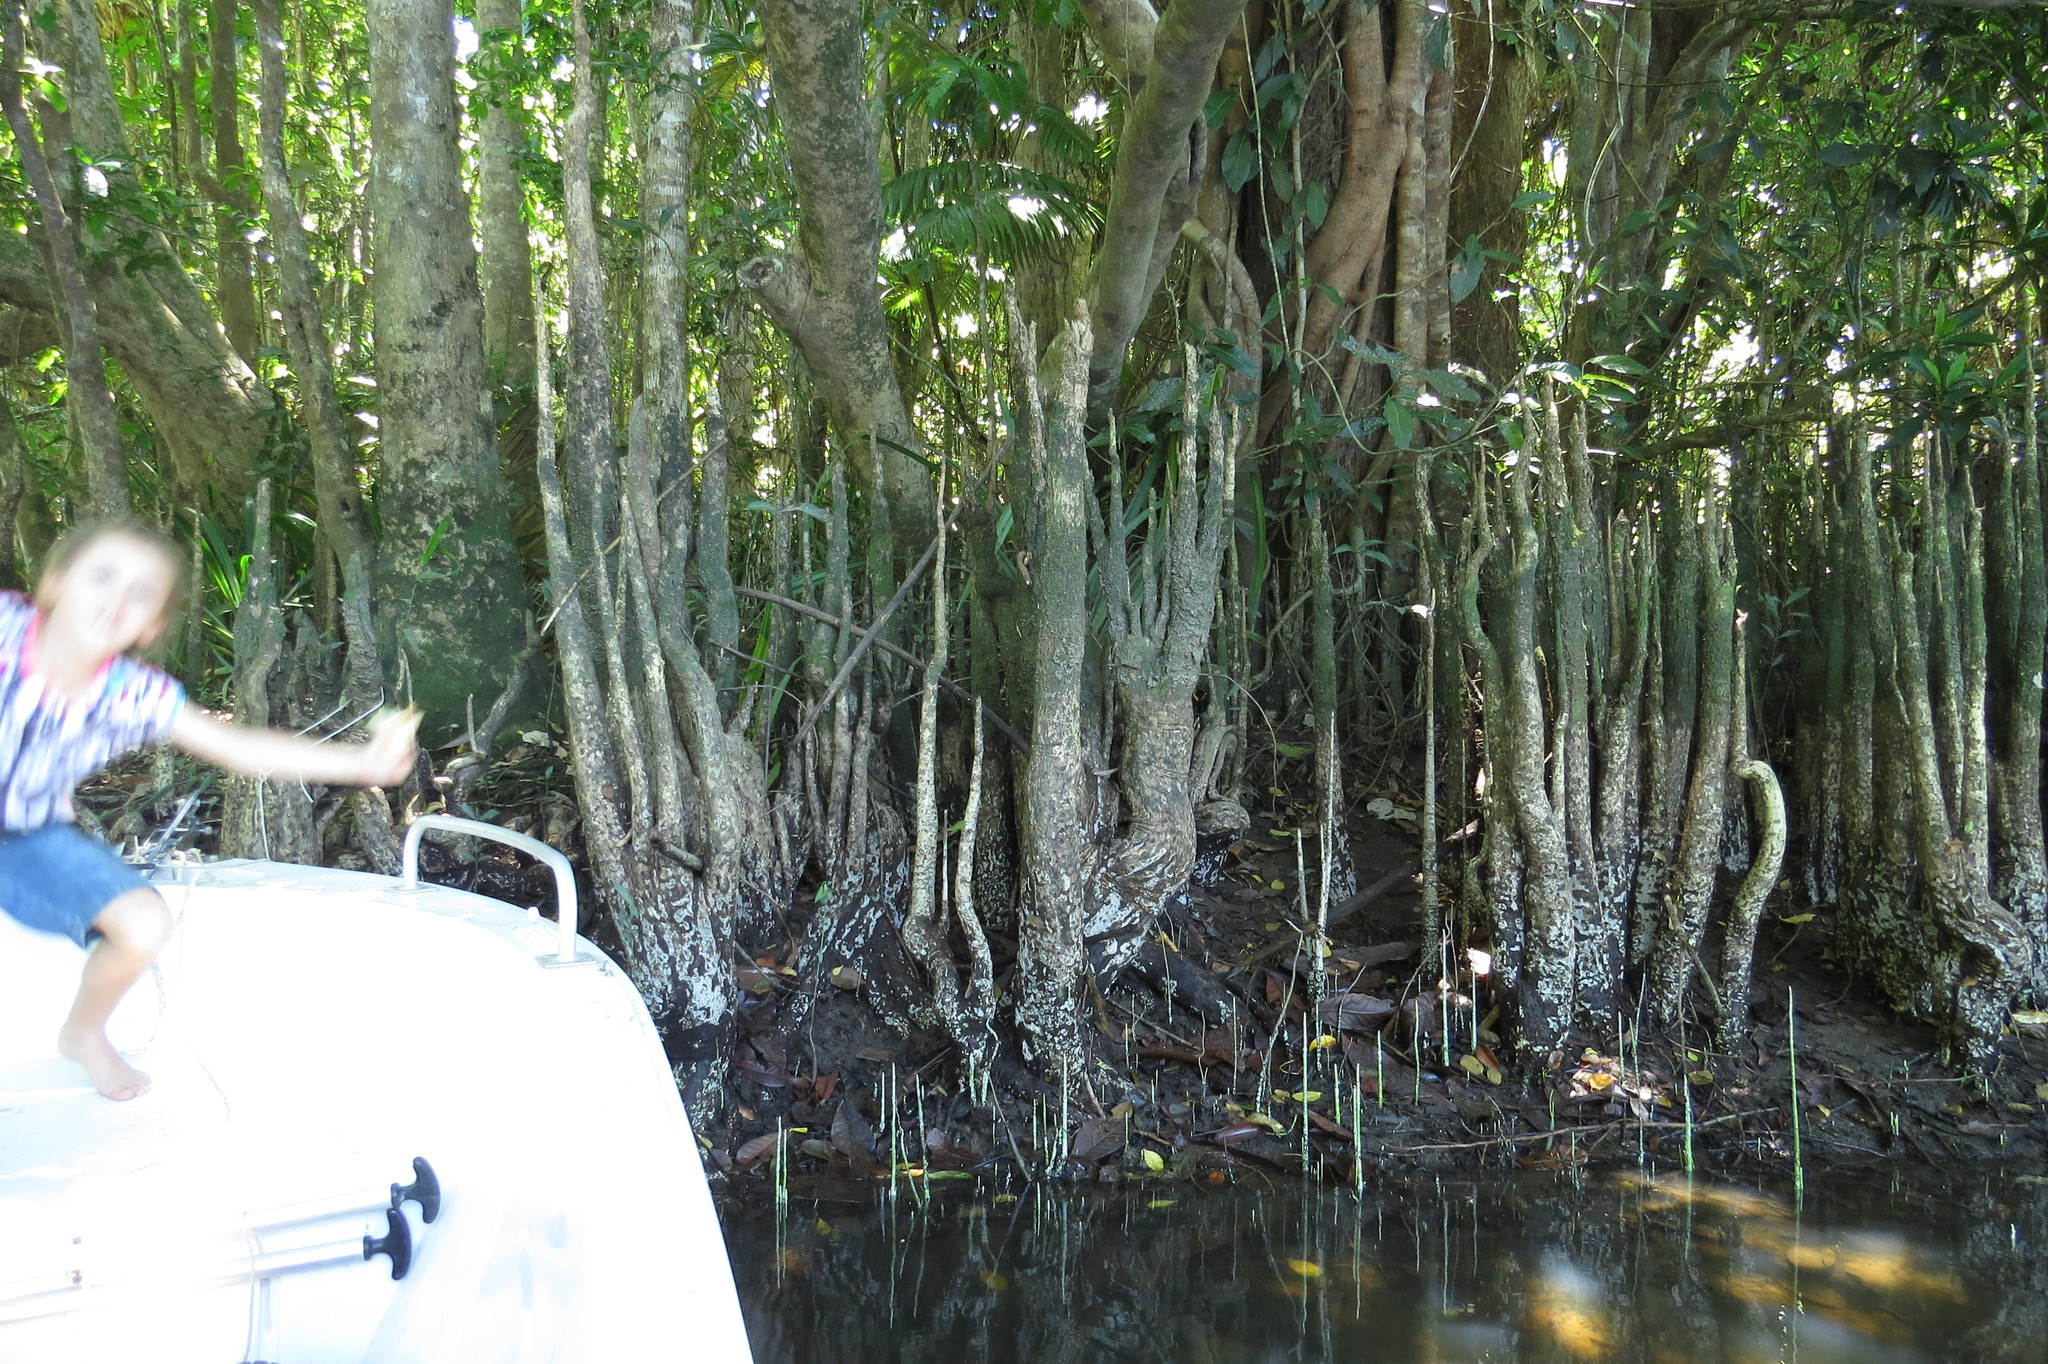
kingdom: Plantae
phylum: Tracheophyta
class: Magnoliopsida
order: Myrtales
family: Lythraceae
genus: Sonneratia
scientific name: Sonneratia caseolaris
